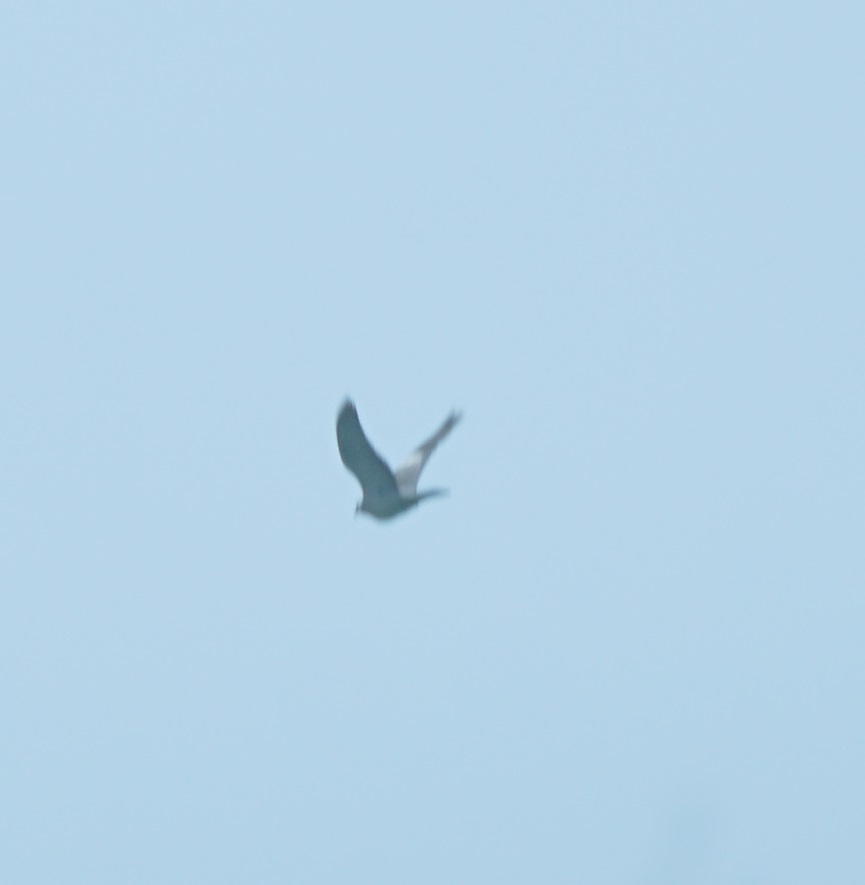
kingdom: Animalia
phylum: Chordata
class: Aves
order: Columbiformes
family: Columbidae
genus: Columba
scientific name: Columba palumbus
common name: Common wood pigeon
